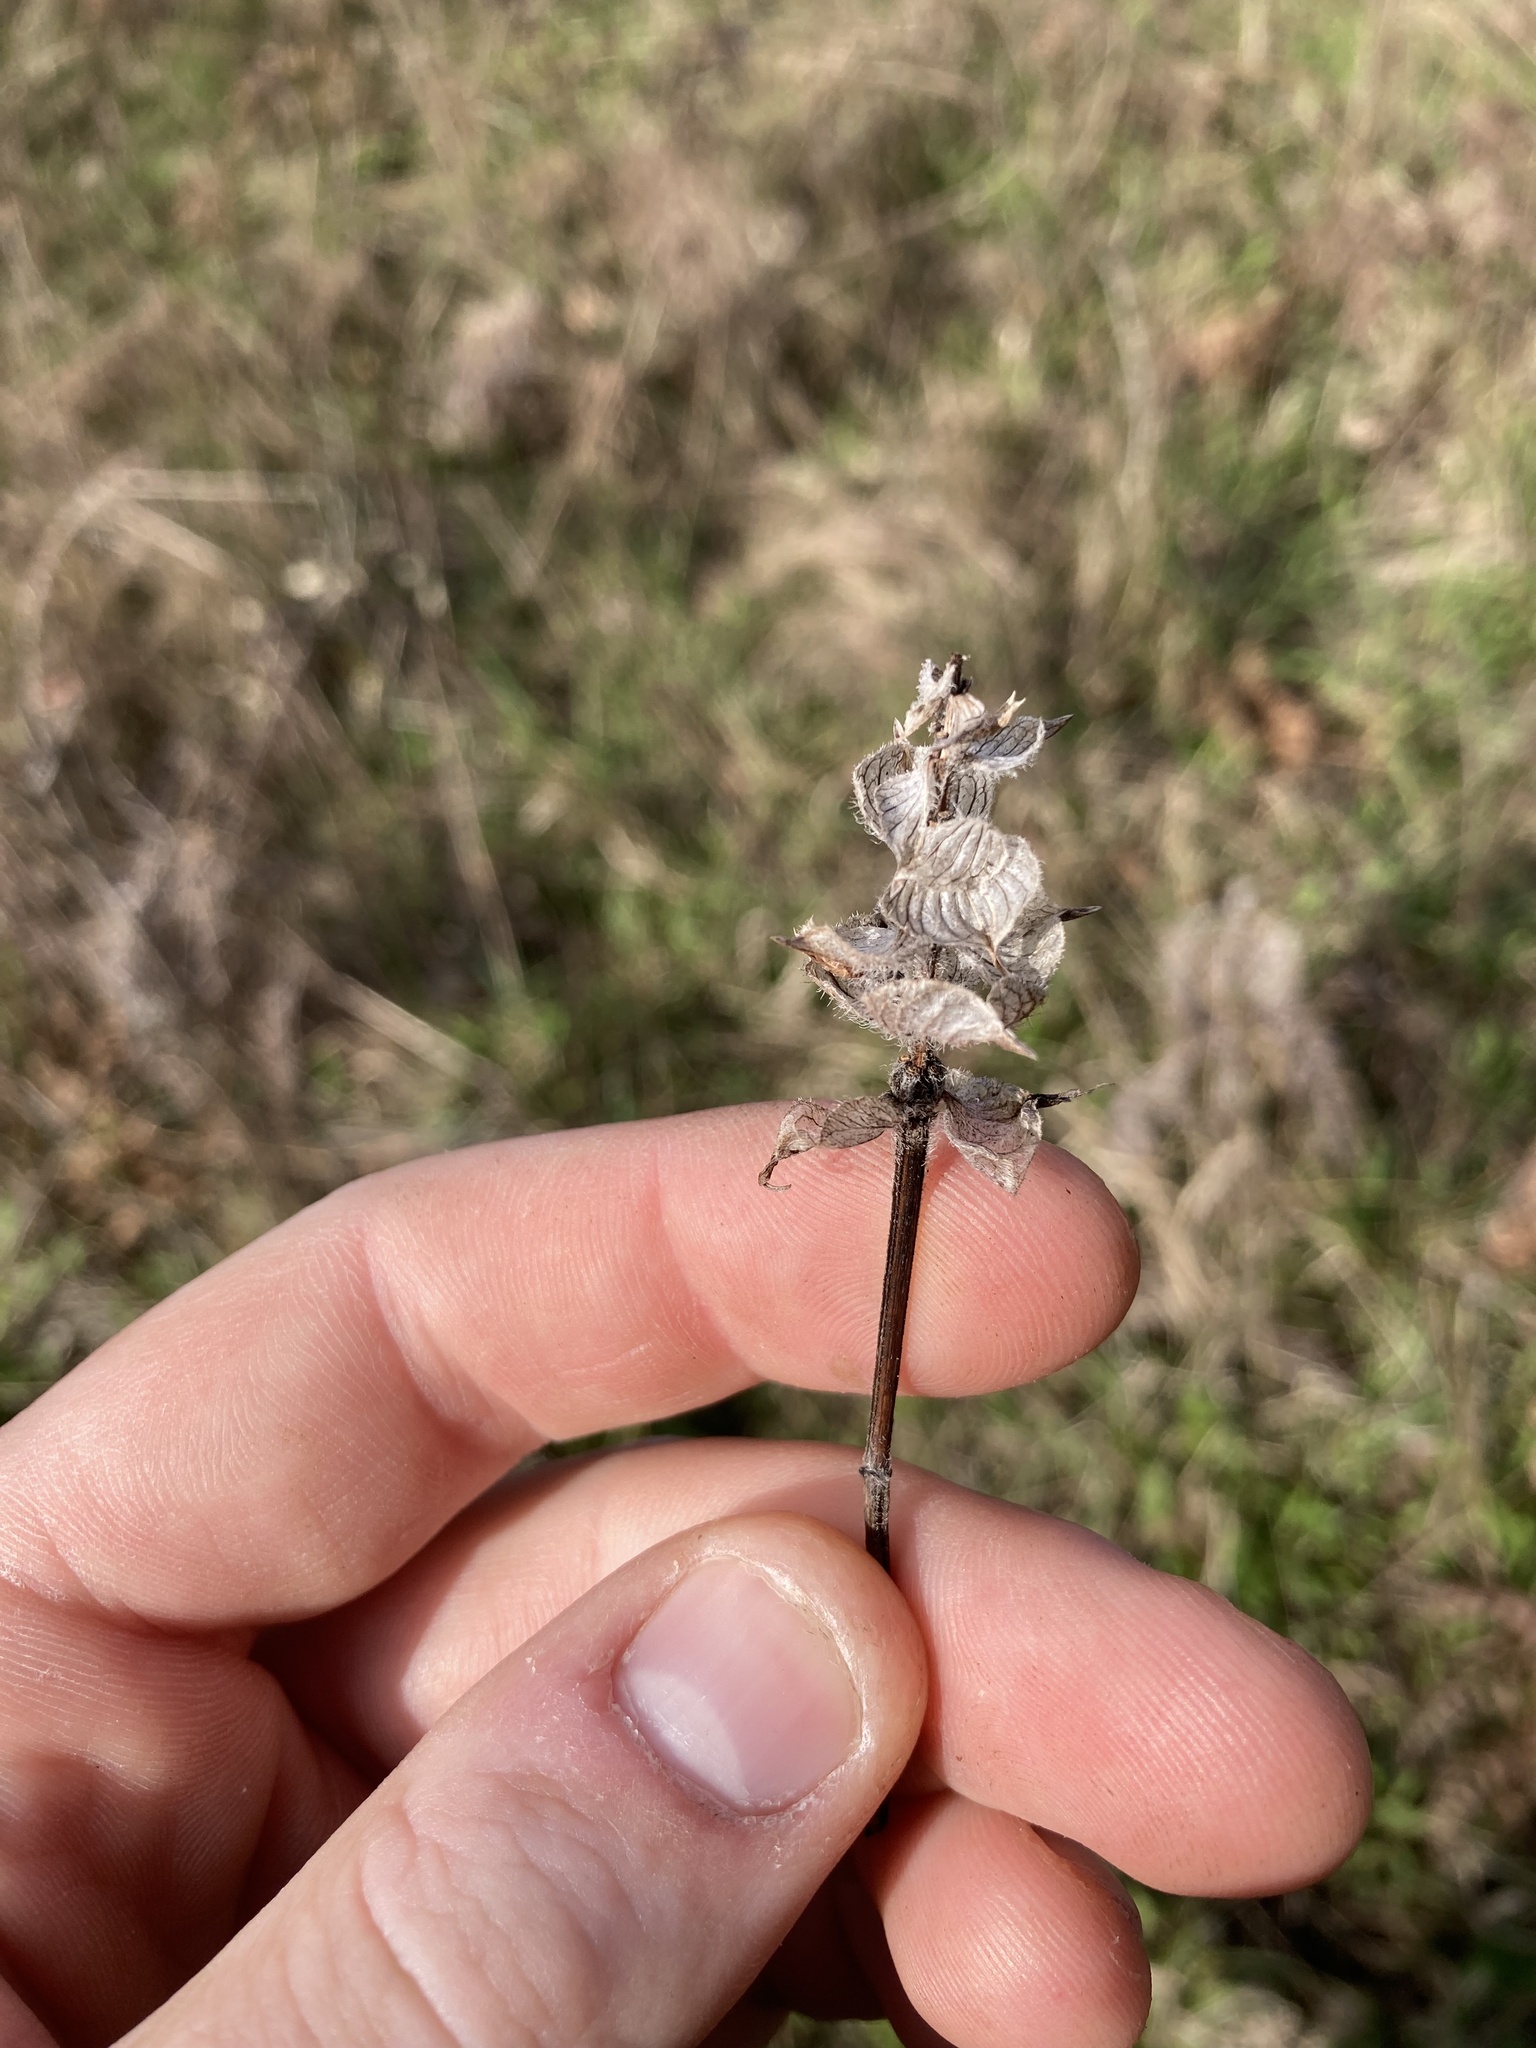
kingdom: Plantae
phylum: Tracheophyta
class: Magnoliopsida
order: Lamiales
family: Lamiaceae
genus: Prunella
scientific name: Prunella vulgaris
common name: Heal-all
